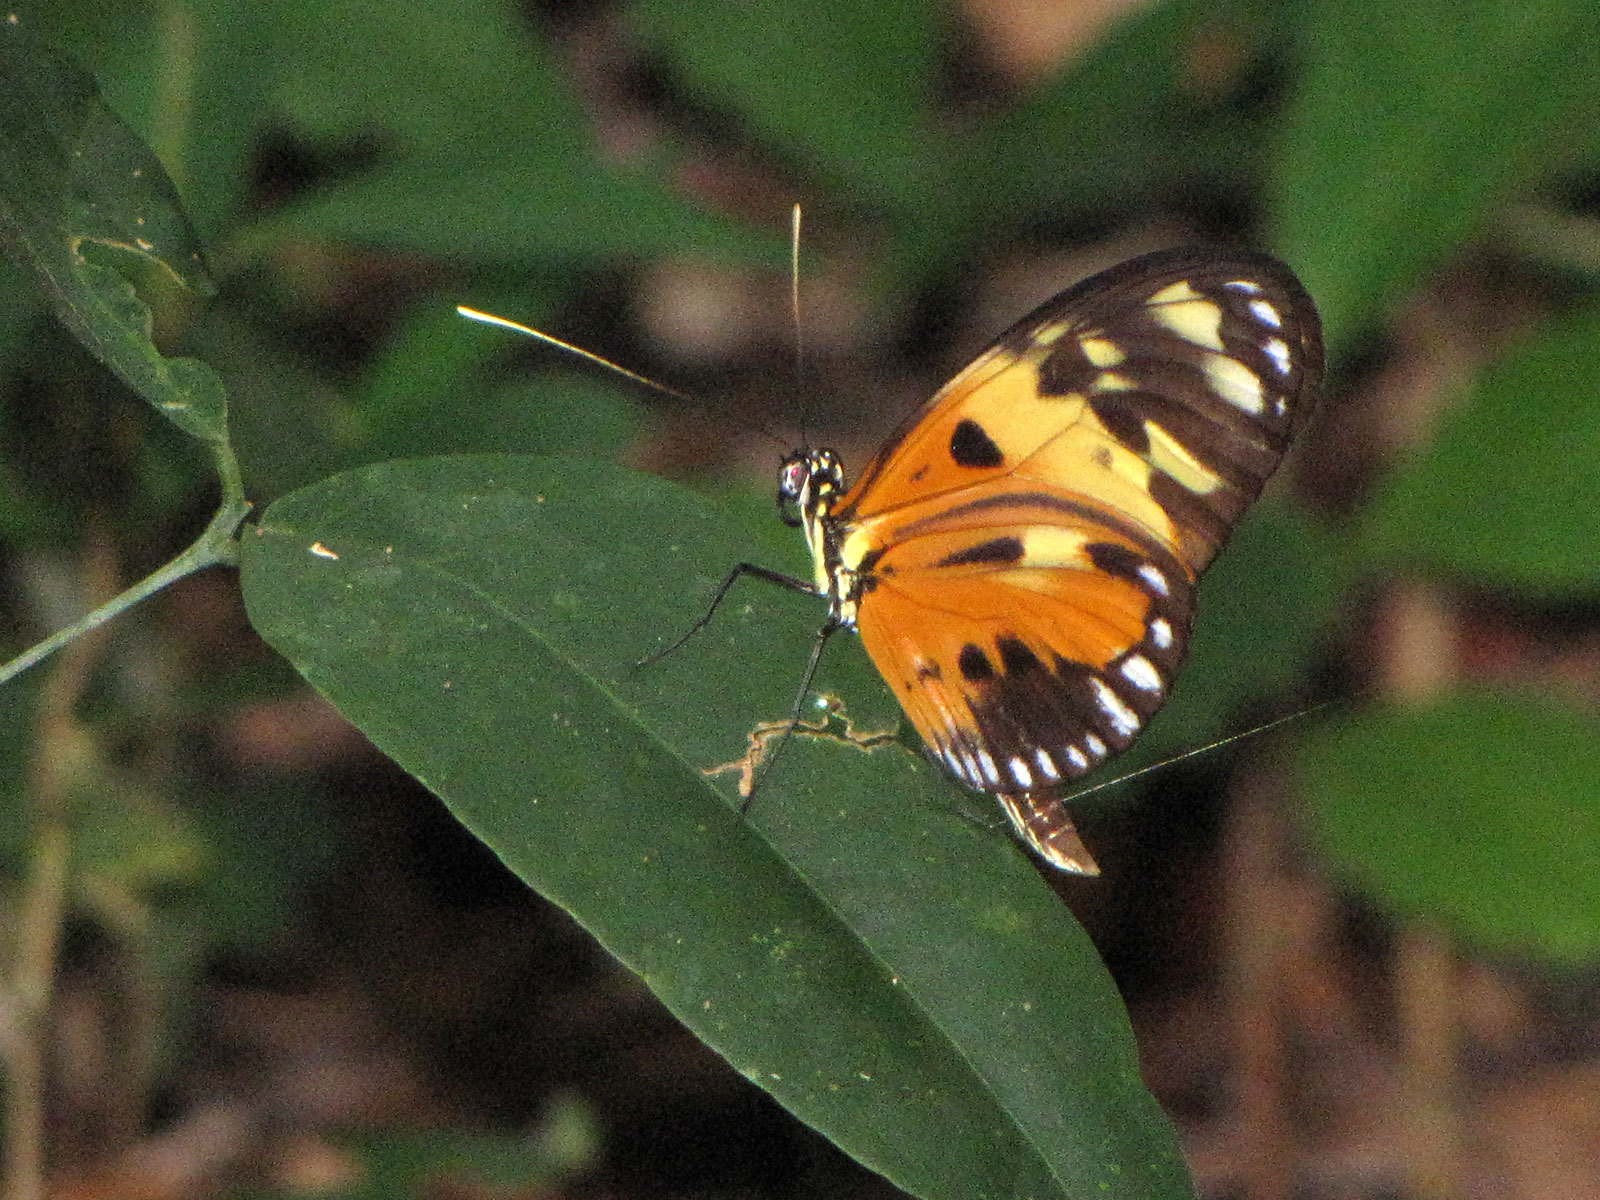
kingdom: Animalia
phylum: Arthropoda
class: Insecta
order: Lepidoptera
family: Nymphalidae
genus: Heliconius
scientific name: Heliconius numatus
